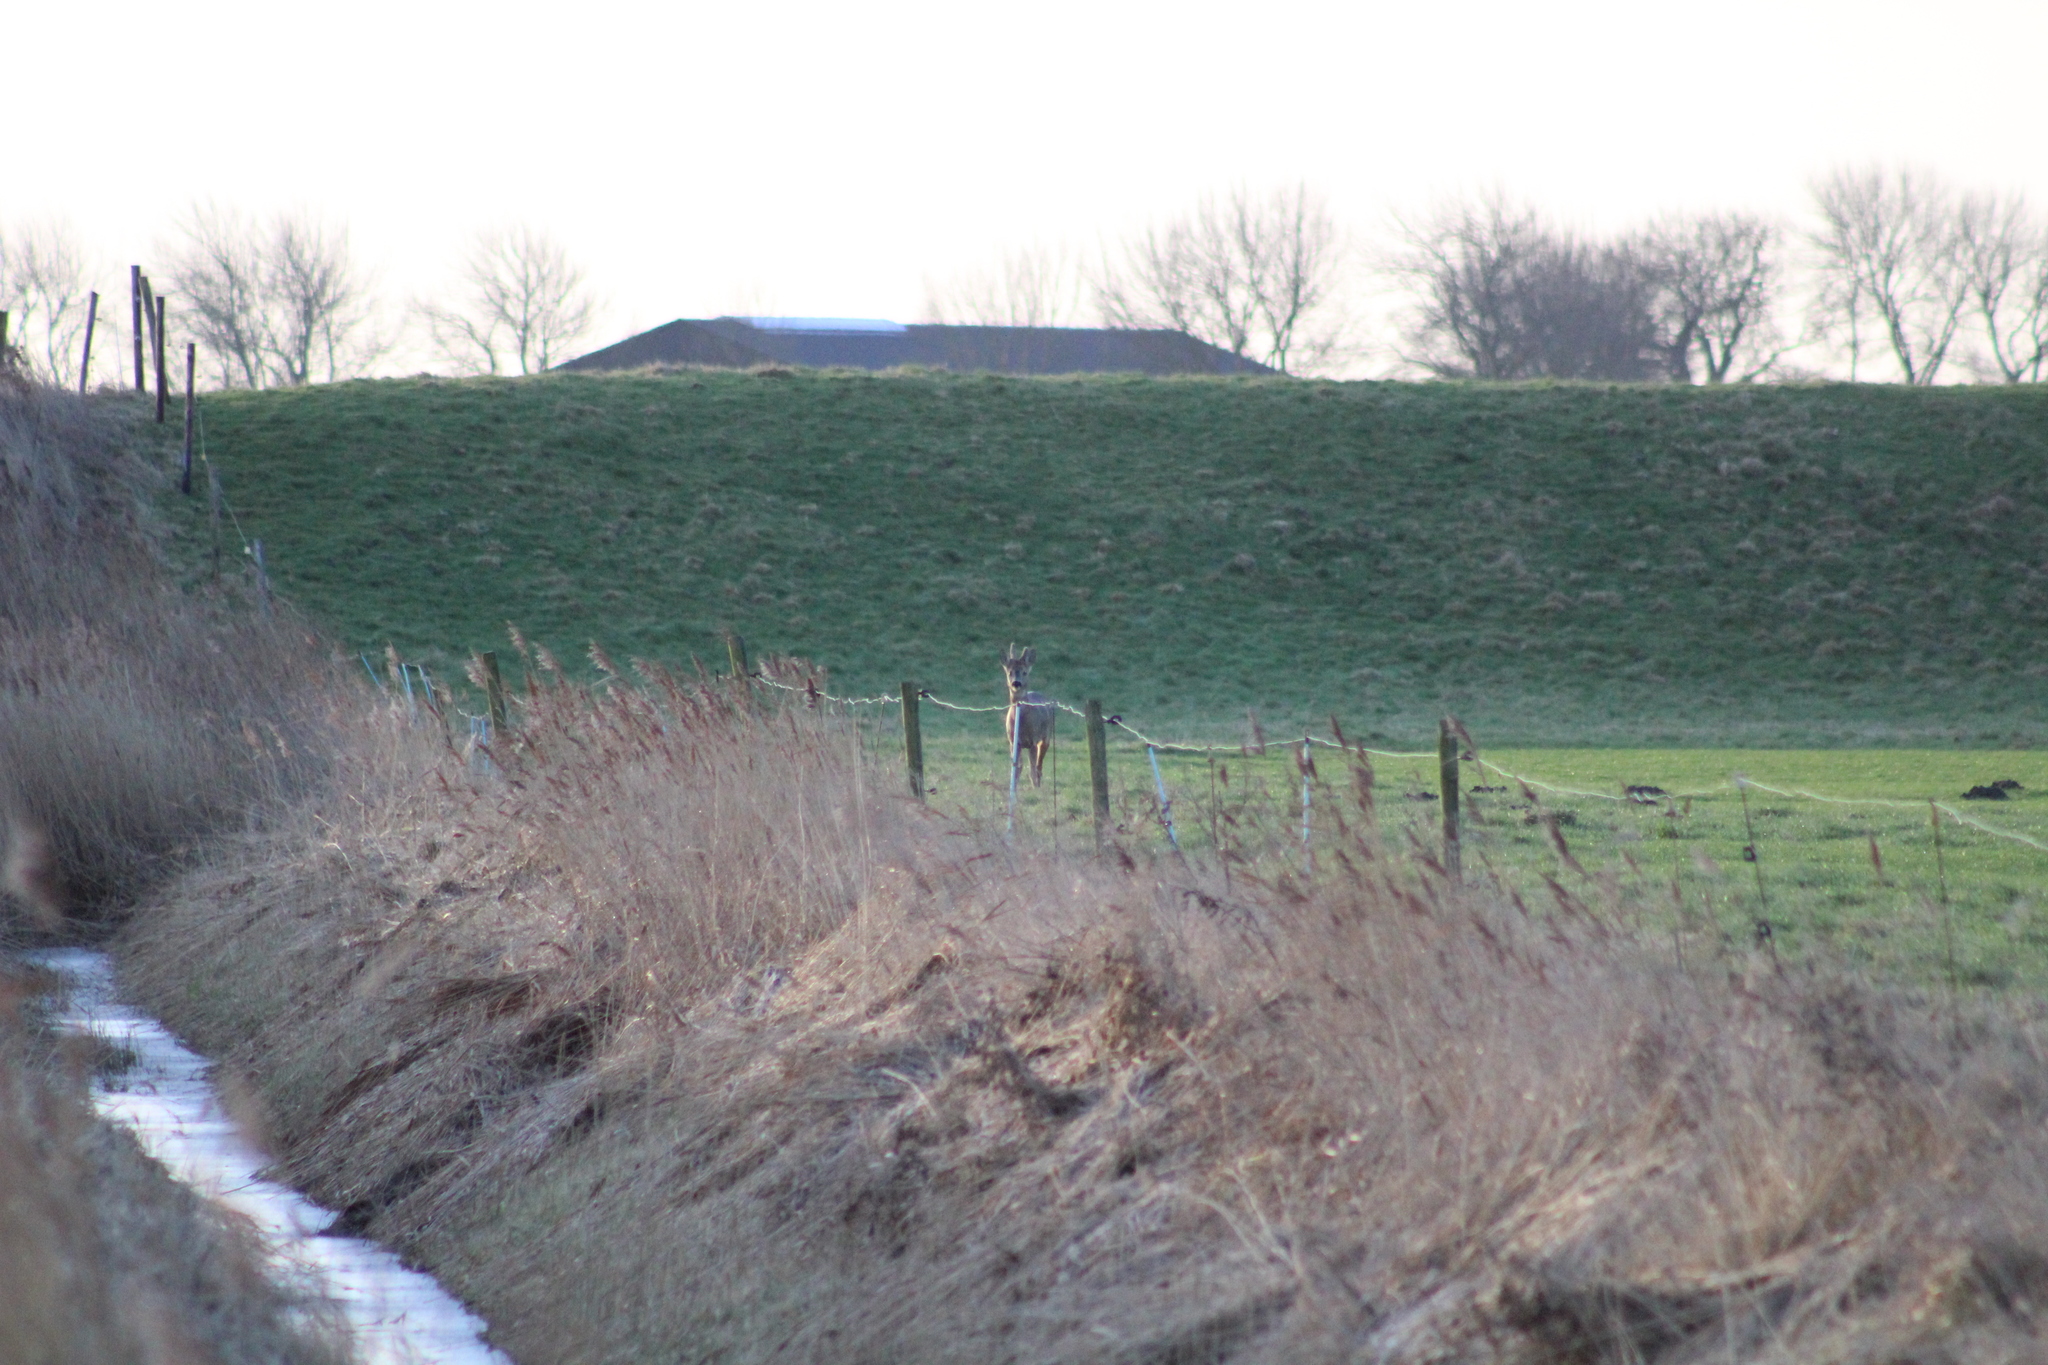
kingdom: Animalia
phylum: Chordata
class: Mammalia
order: Artiodactyla
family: Cervidae
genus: Capreolus
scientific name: Capreolus capreolus
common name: Western roe deer
